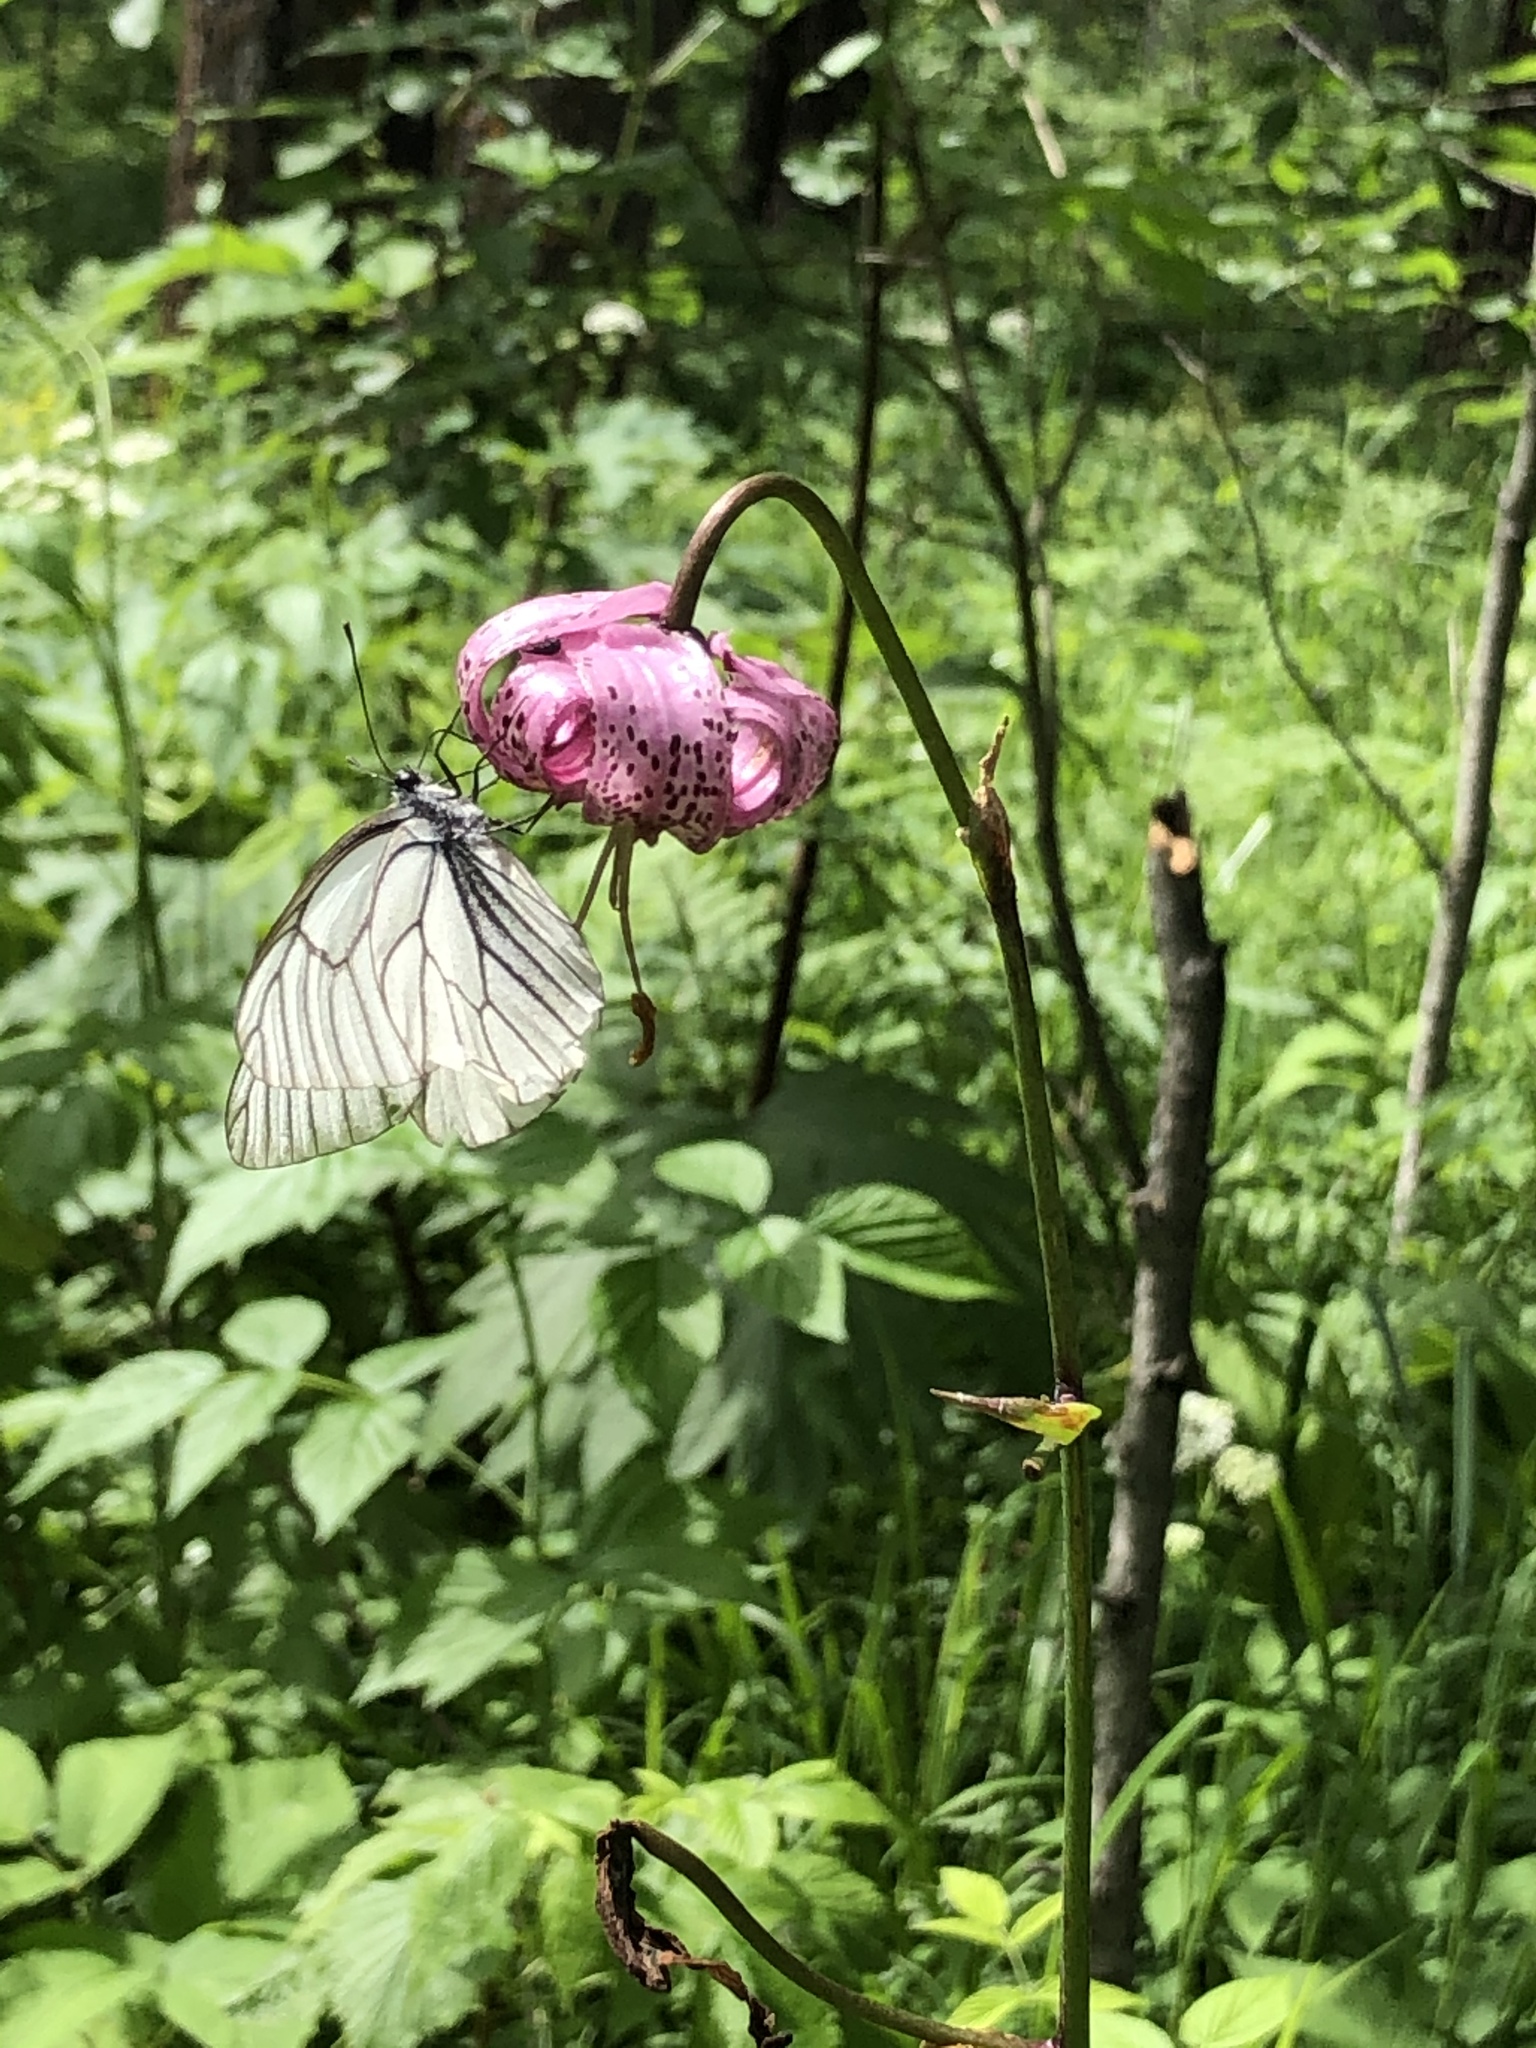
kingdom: Animalia
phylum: Arthropoda
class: Insecta
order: Lepidoptera
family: Pieridae
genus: Aporia
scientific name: Aporia crataegi
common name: Black-veined white
